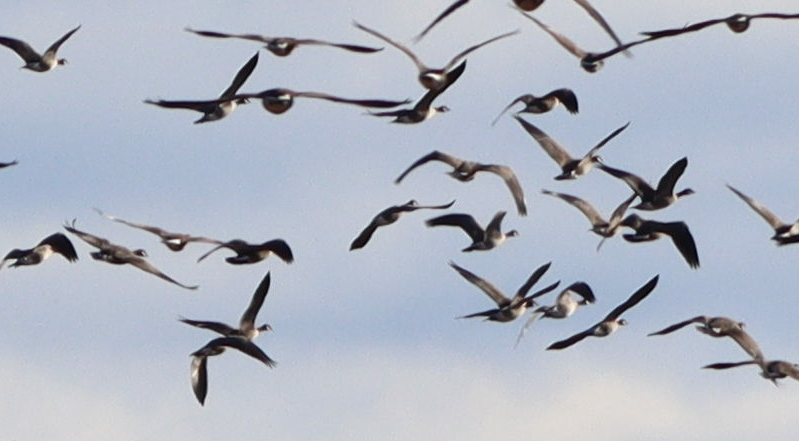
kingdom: Animalia
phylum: Chordata
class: Aves
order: Anseriformes
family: Anatidae
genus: Branta
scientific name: Branta canadensis
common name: Canada goose
